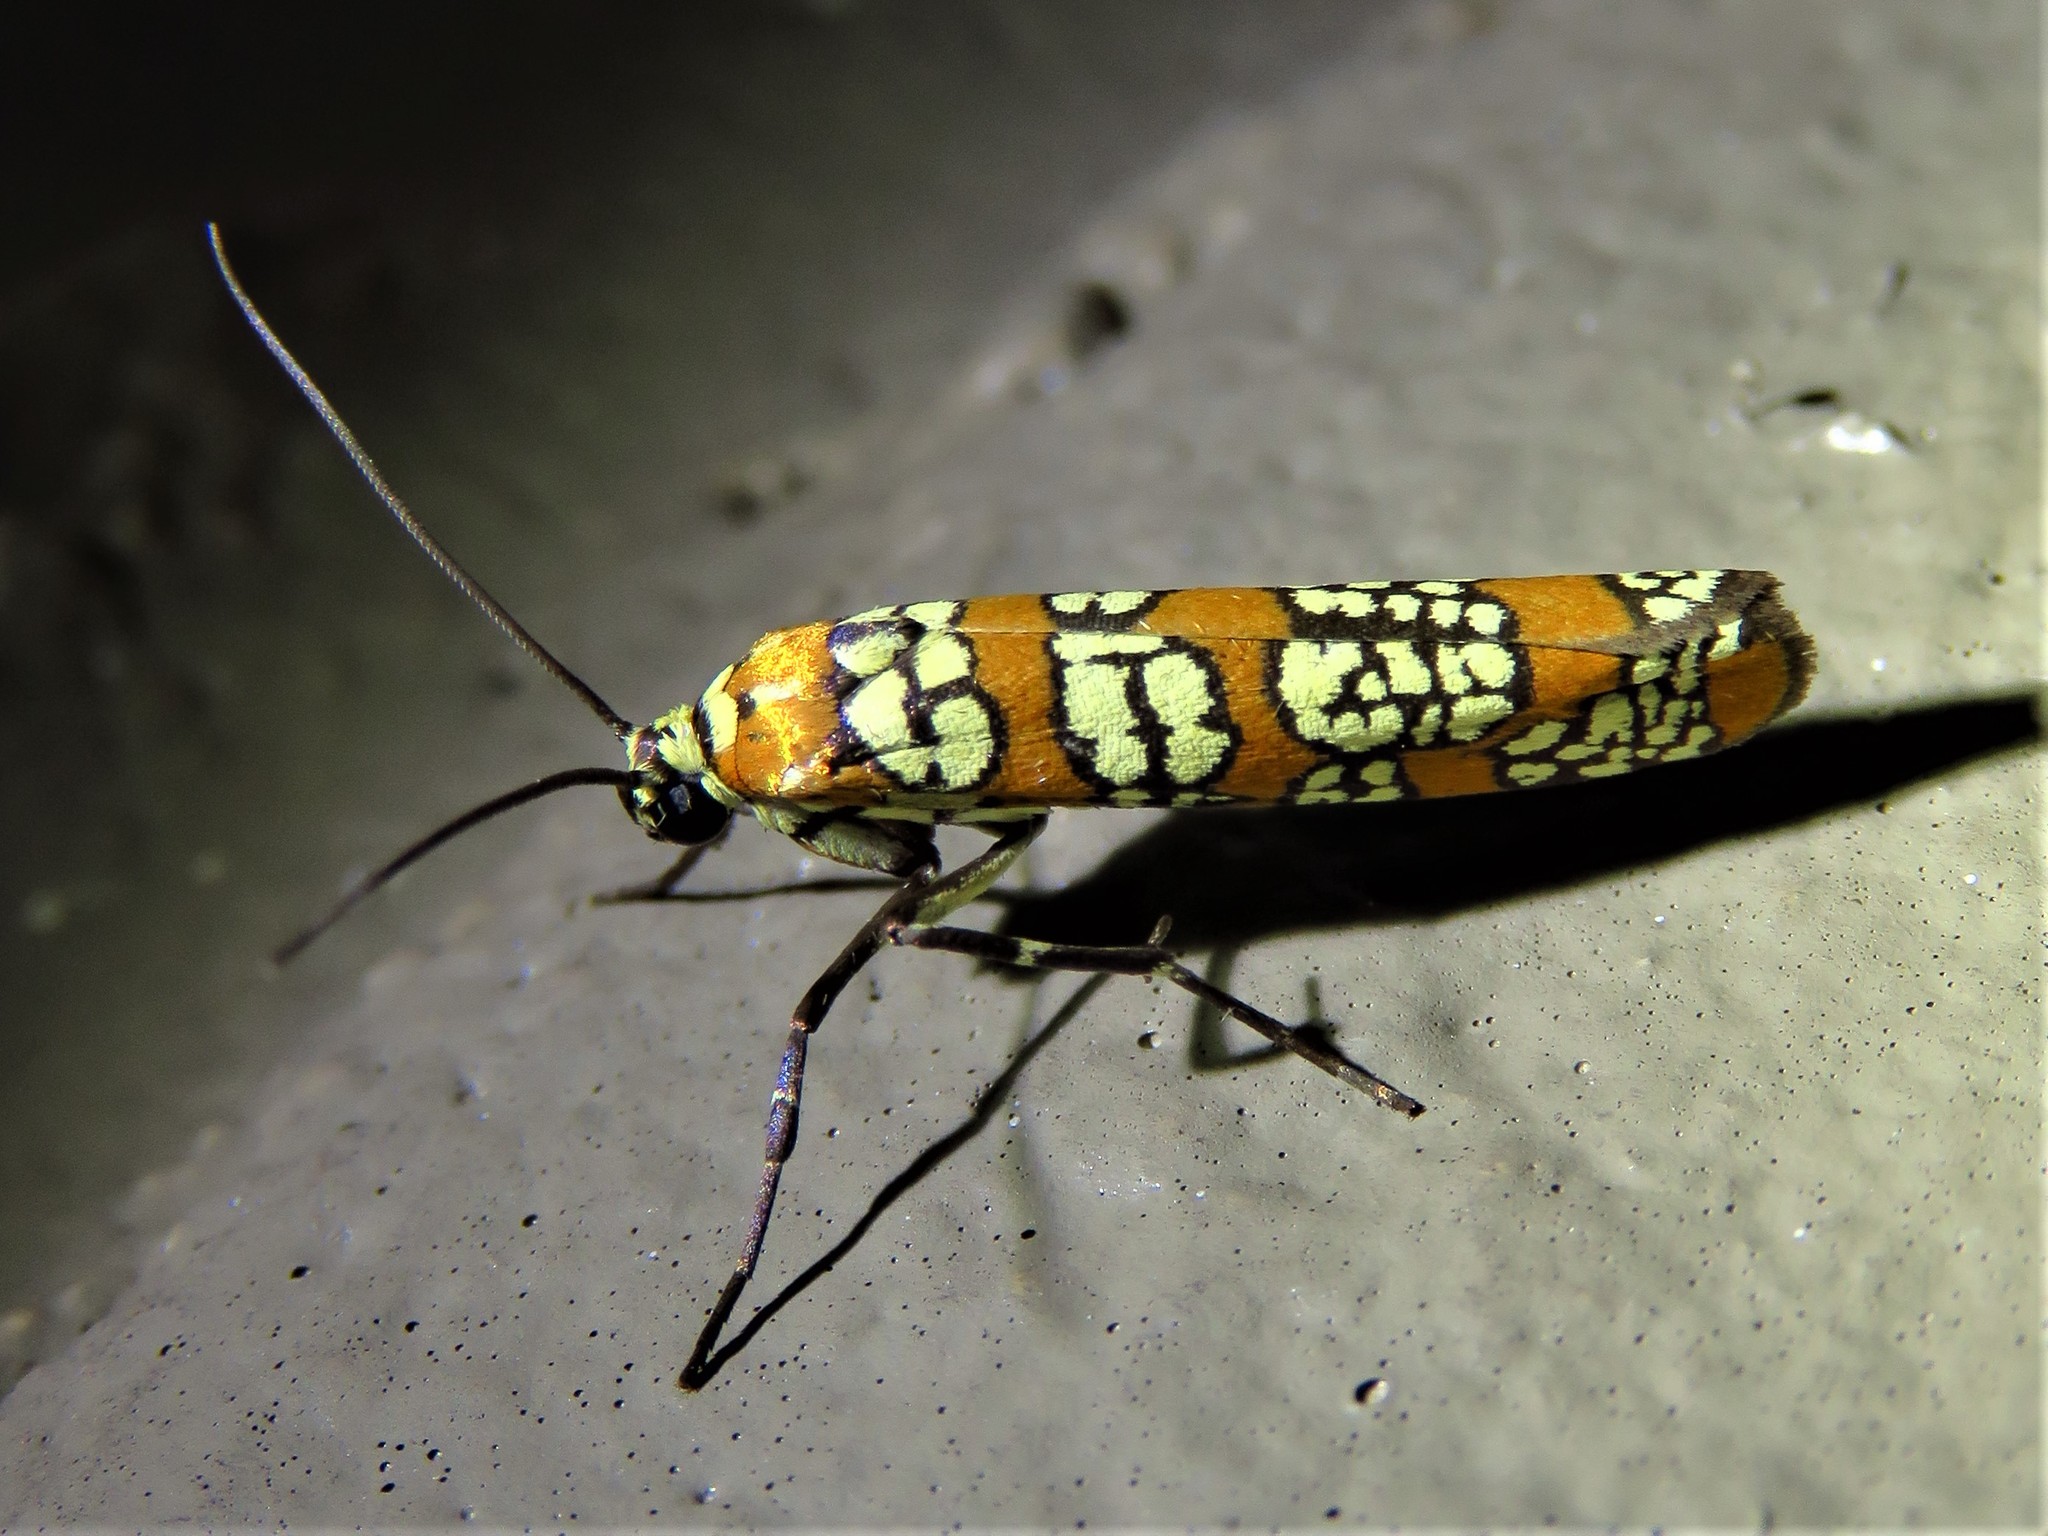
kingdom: Animalia
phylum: Arthropoda
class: Insecta
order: Lepidoptera
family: Attevidae
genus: Atteva
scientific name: Atteva punctella
